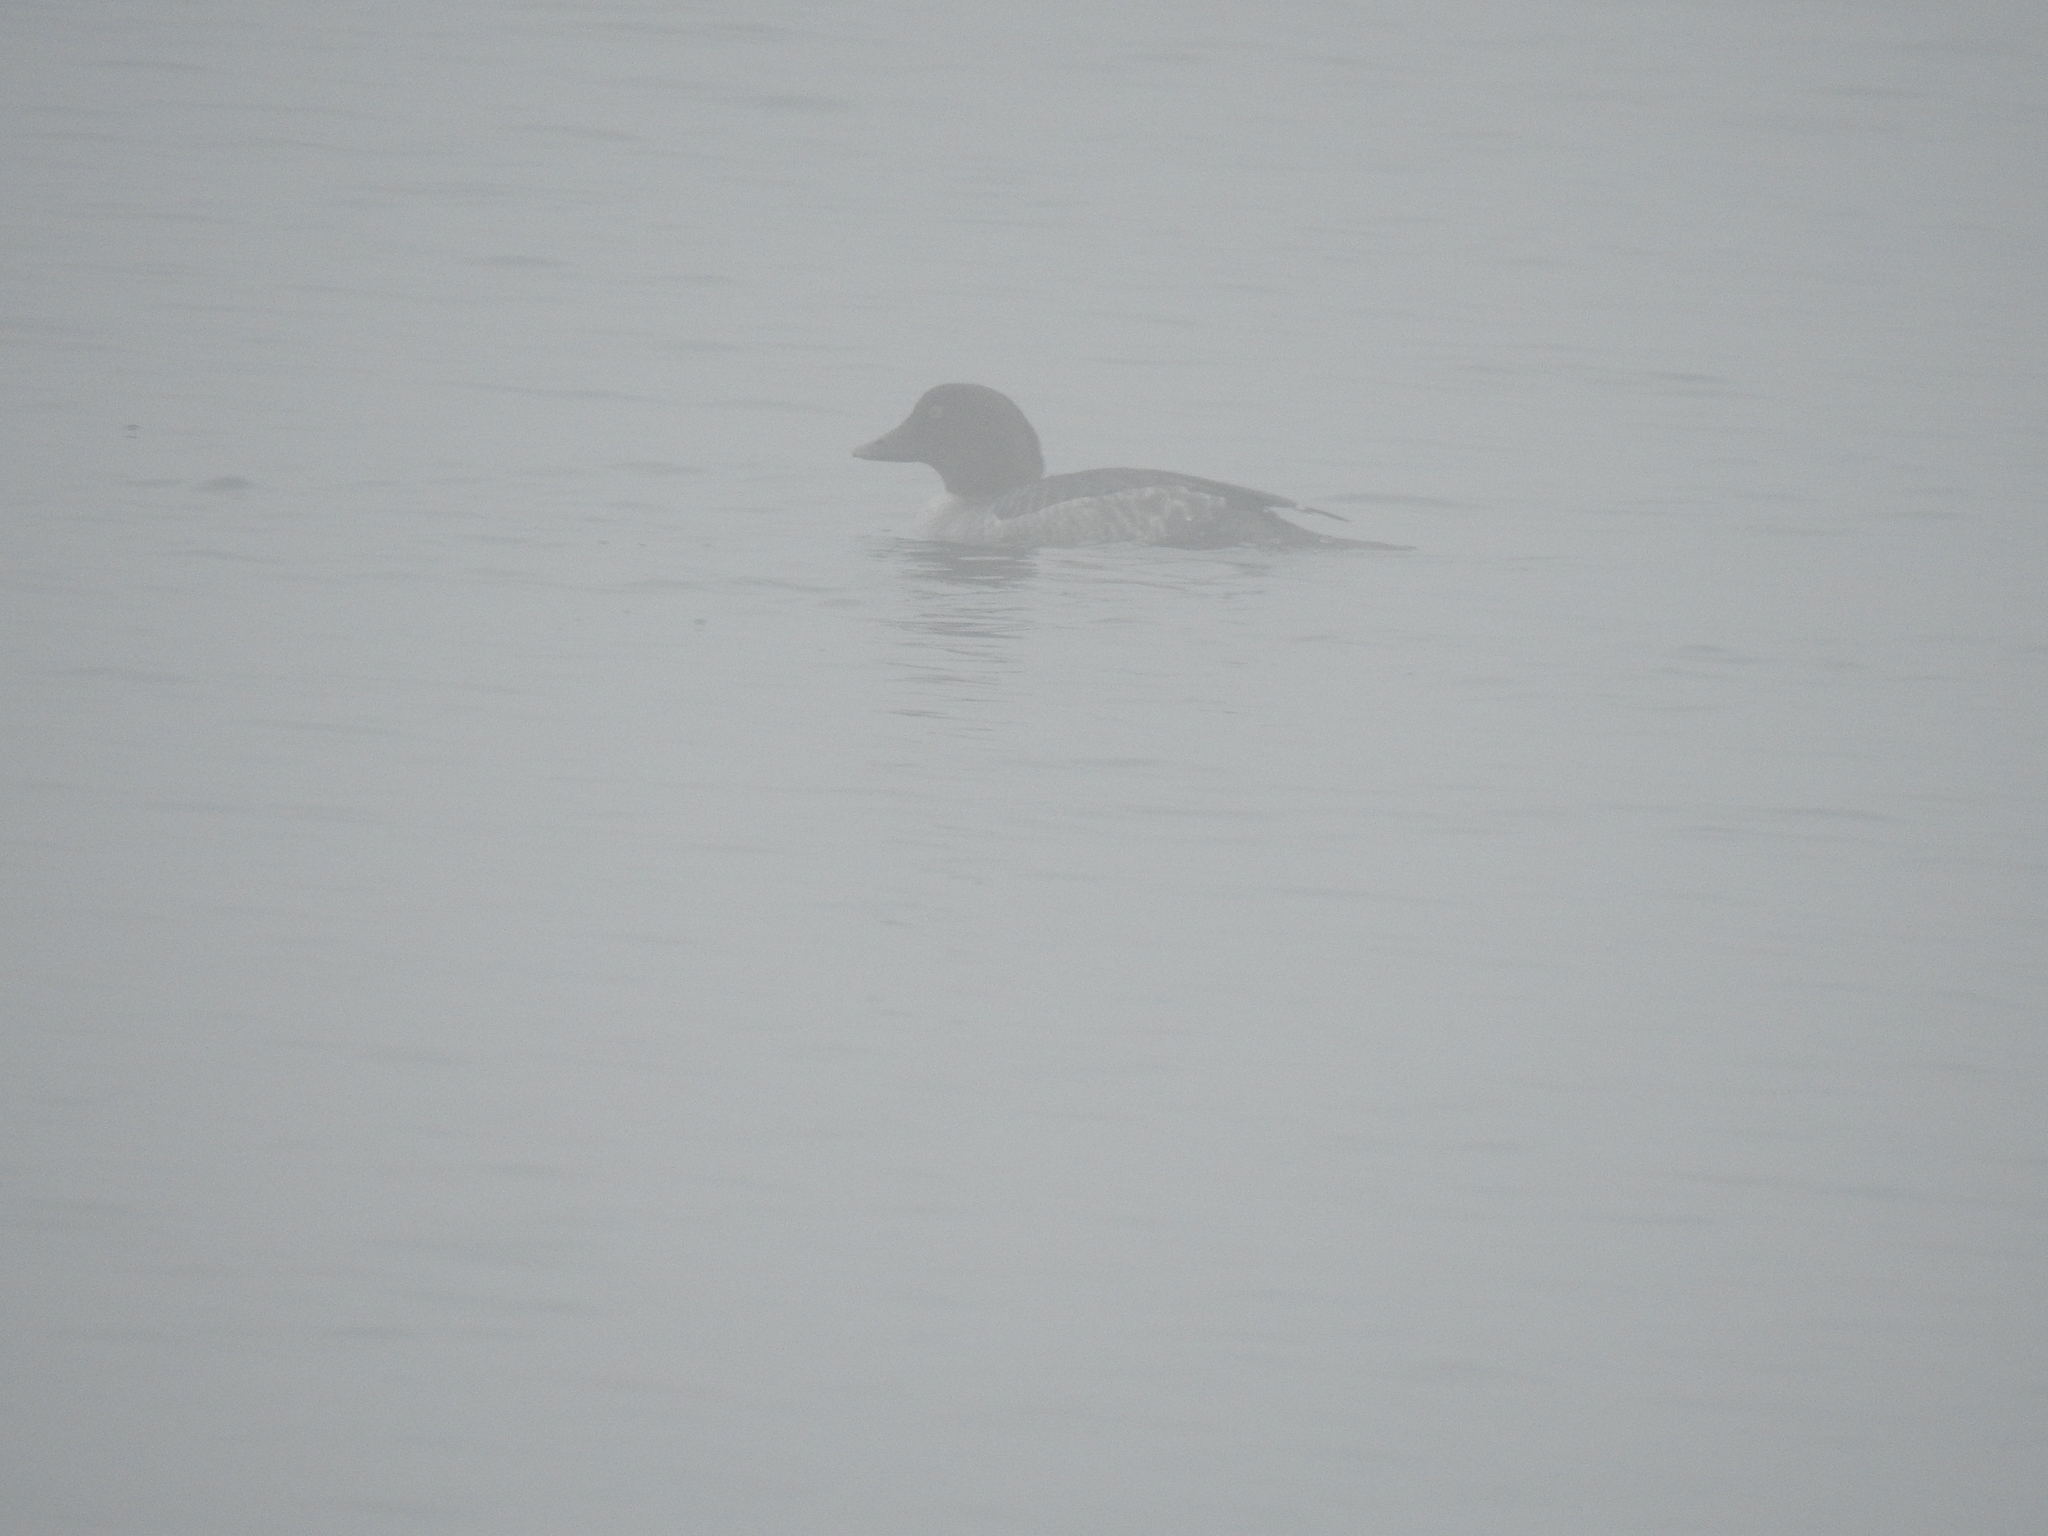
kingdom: Animalia
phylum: Chordata
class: Aves
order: Anseriformes
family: Anatidae
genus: Bucephala
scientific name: Bucephala clangula
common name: Common goldeneye
